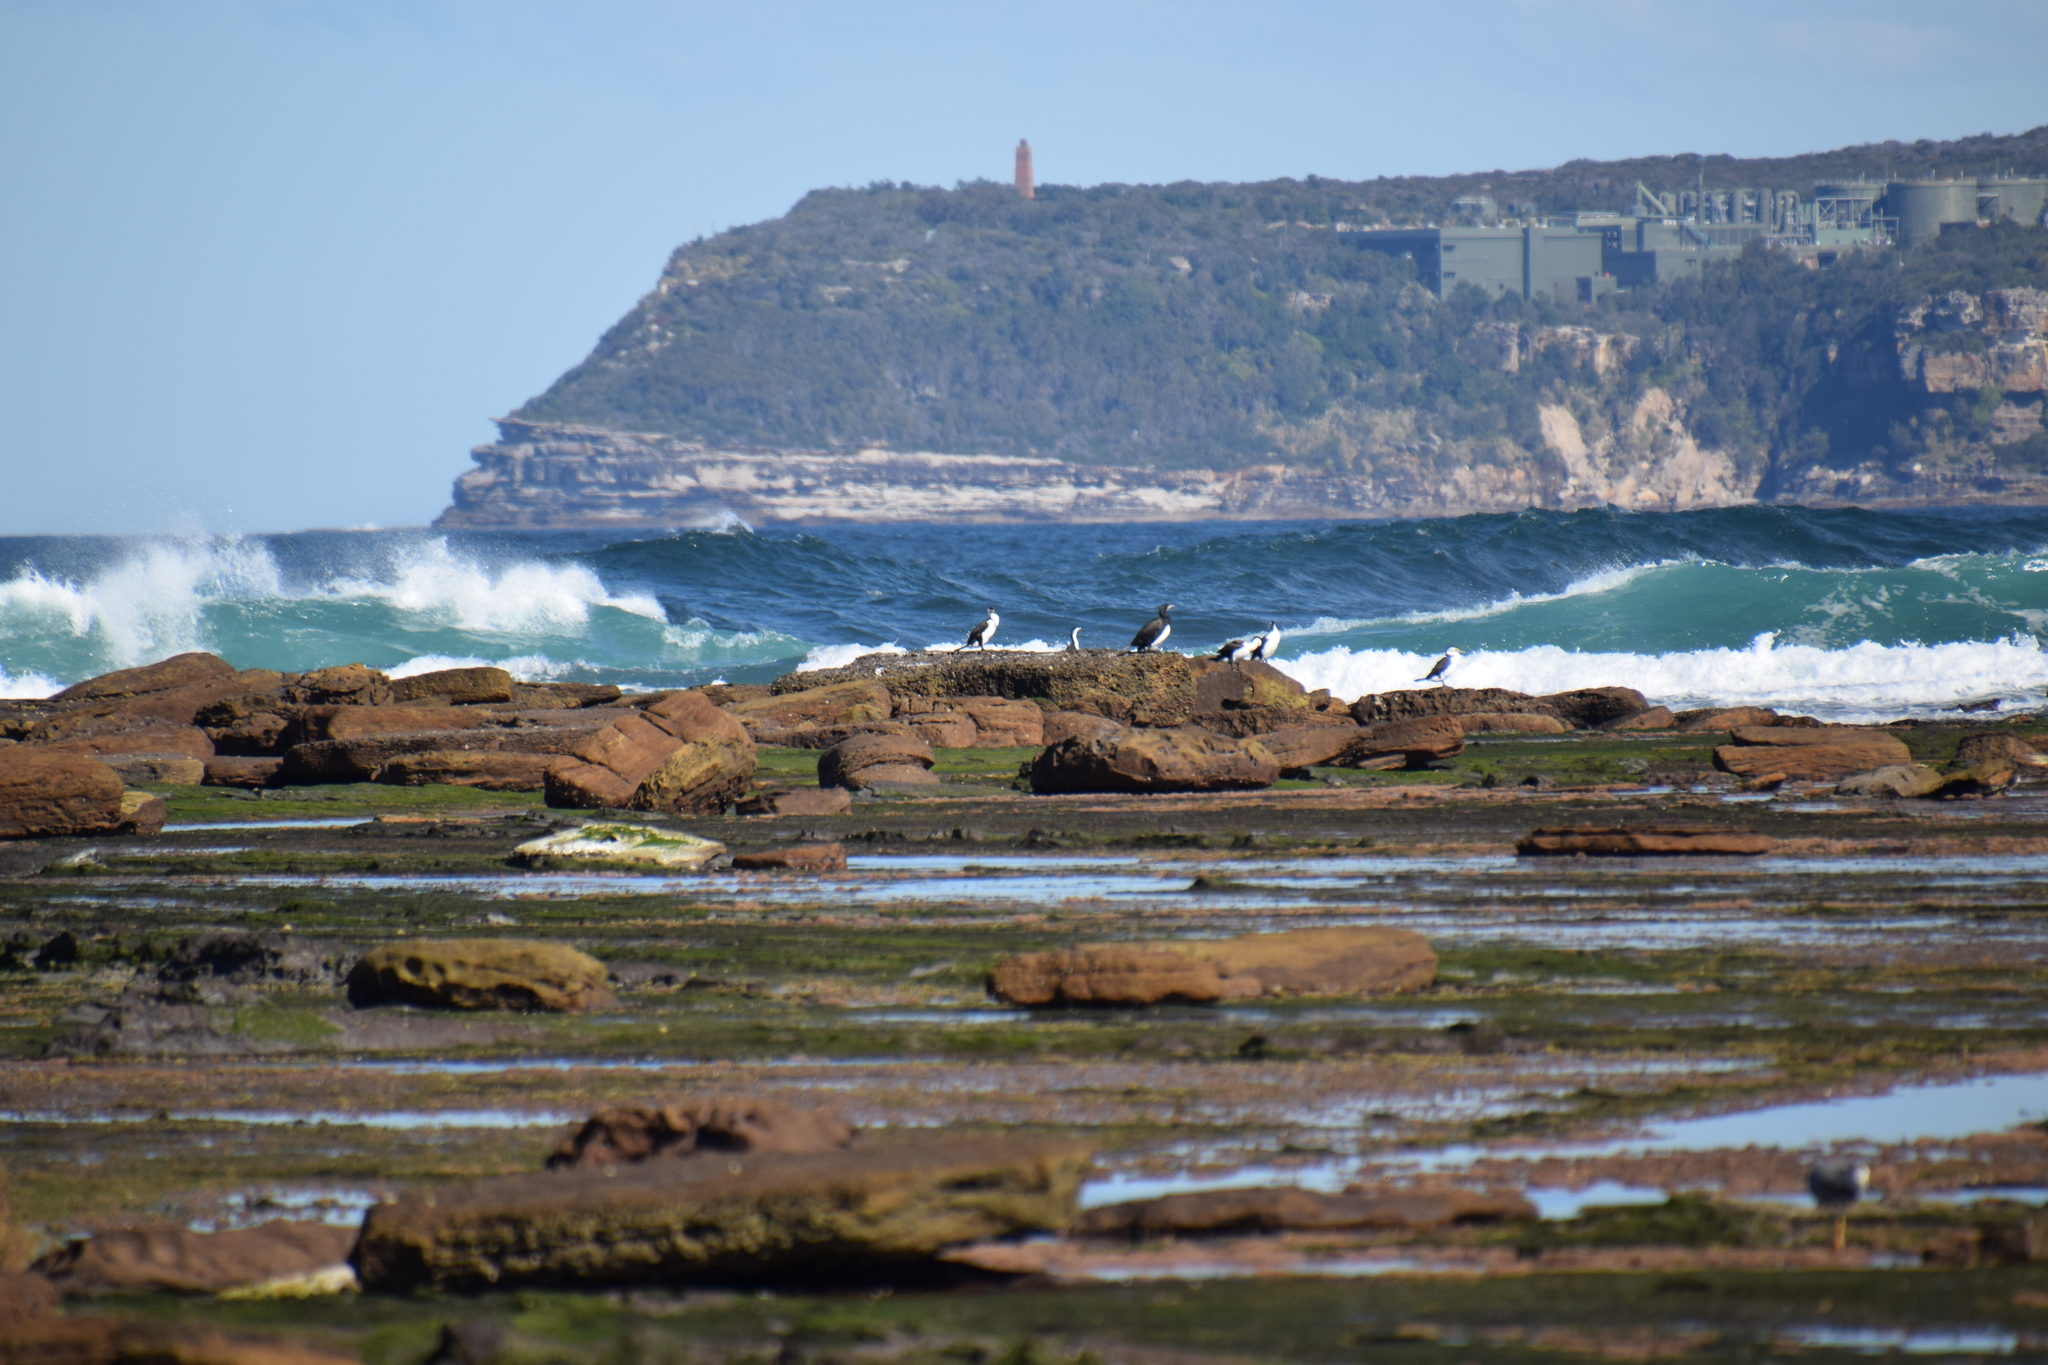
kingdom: Animalia
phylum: Chordata
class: Aves
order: Suliformes
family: Phalacrocoracidae
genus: Phalacrocorax
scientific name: Phalacrocorax varius
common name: Pied cormorant
